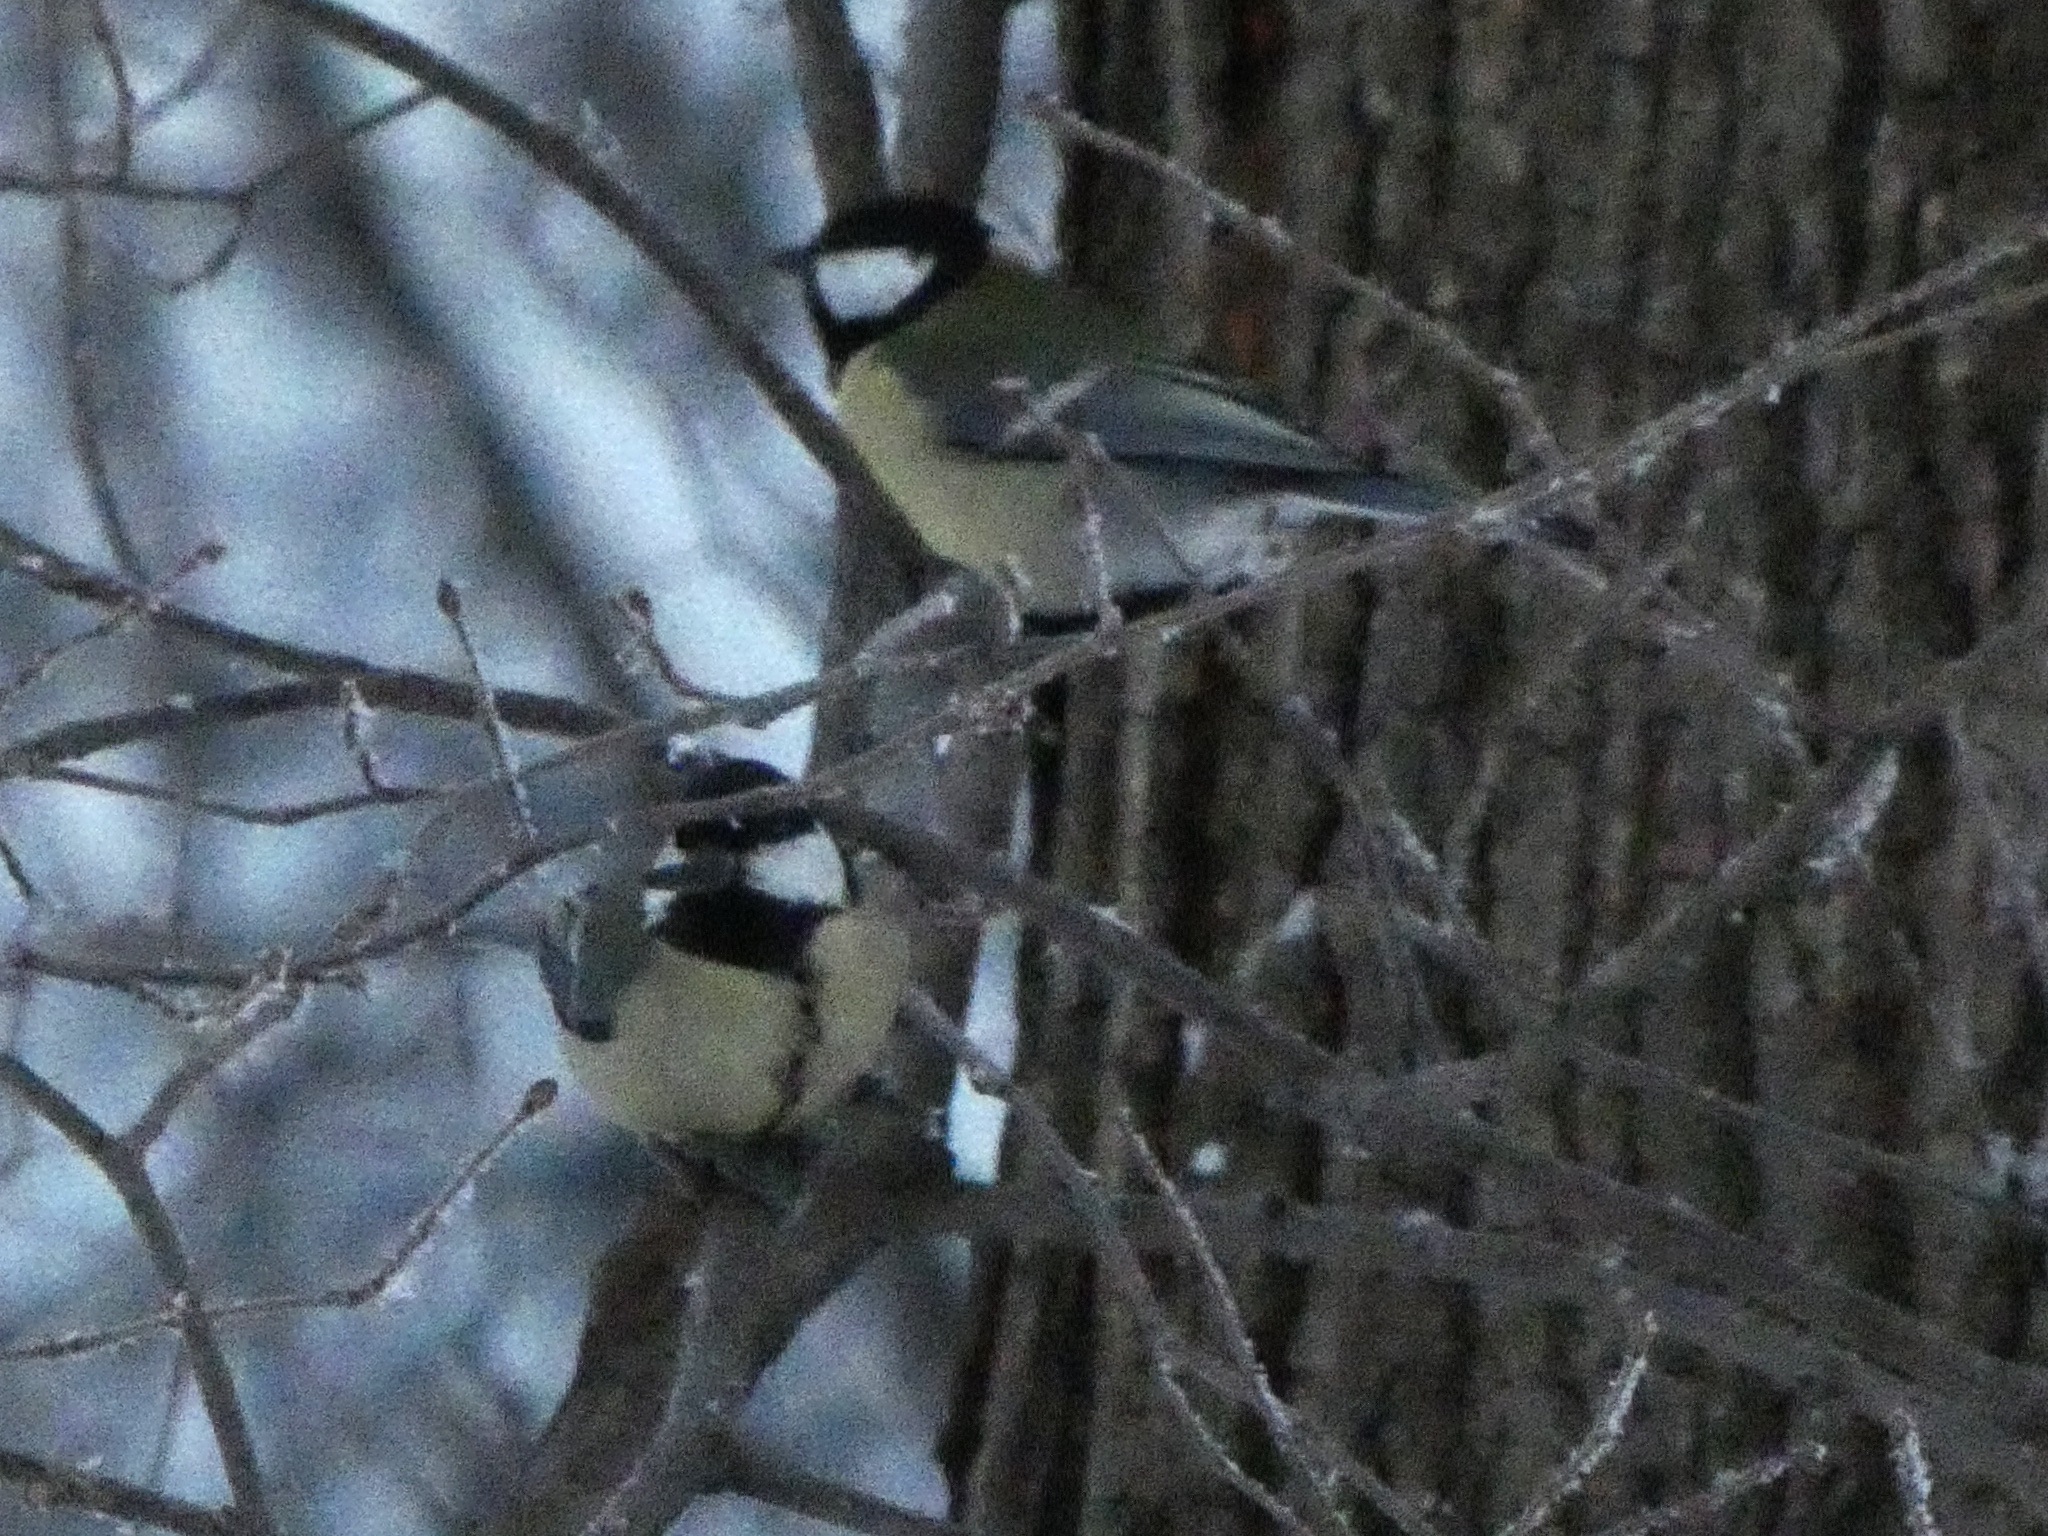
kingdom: Animalia
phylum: Chordata
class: Aves
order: Passeriformes
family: Paridae
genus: Parus
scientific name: Parus major
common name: Great tit
